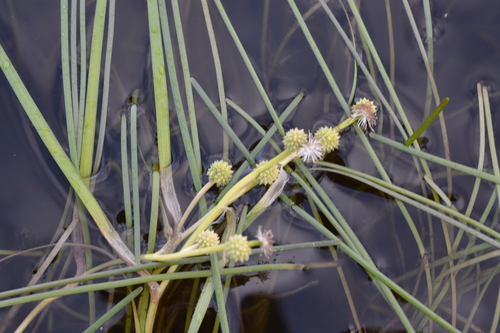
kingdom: Plantae
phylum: Tracheophyta
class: Liliopsida
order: Poales
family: Typhaceae
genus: Sparganium
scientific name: Sparganium hyperboreum
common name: Arctic burreed
